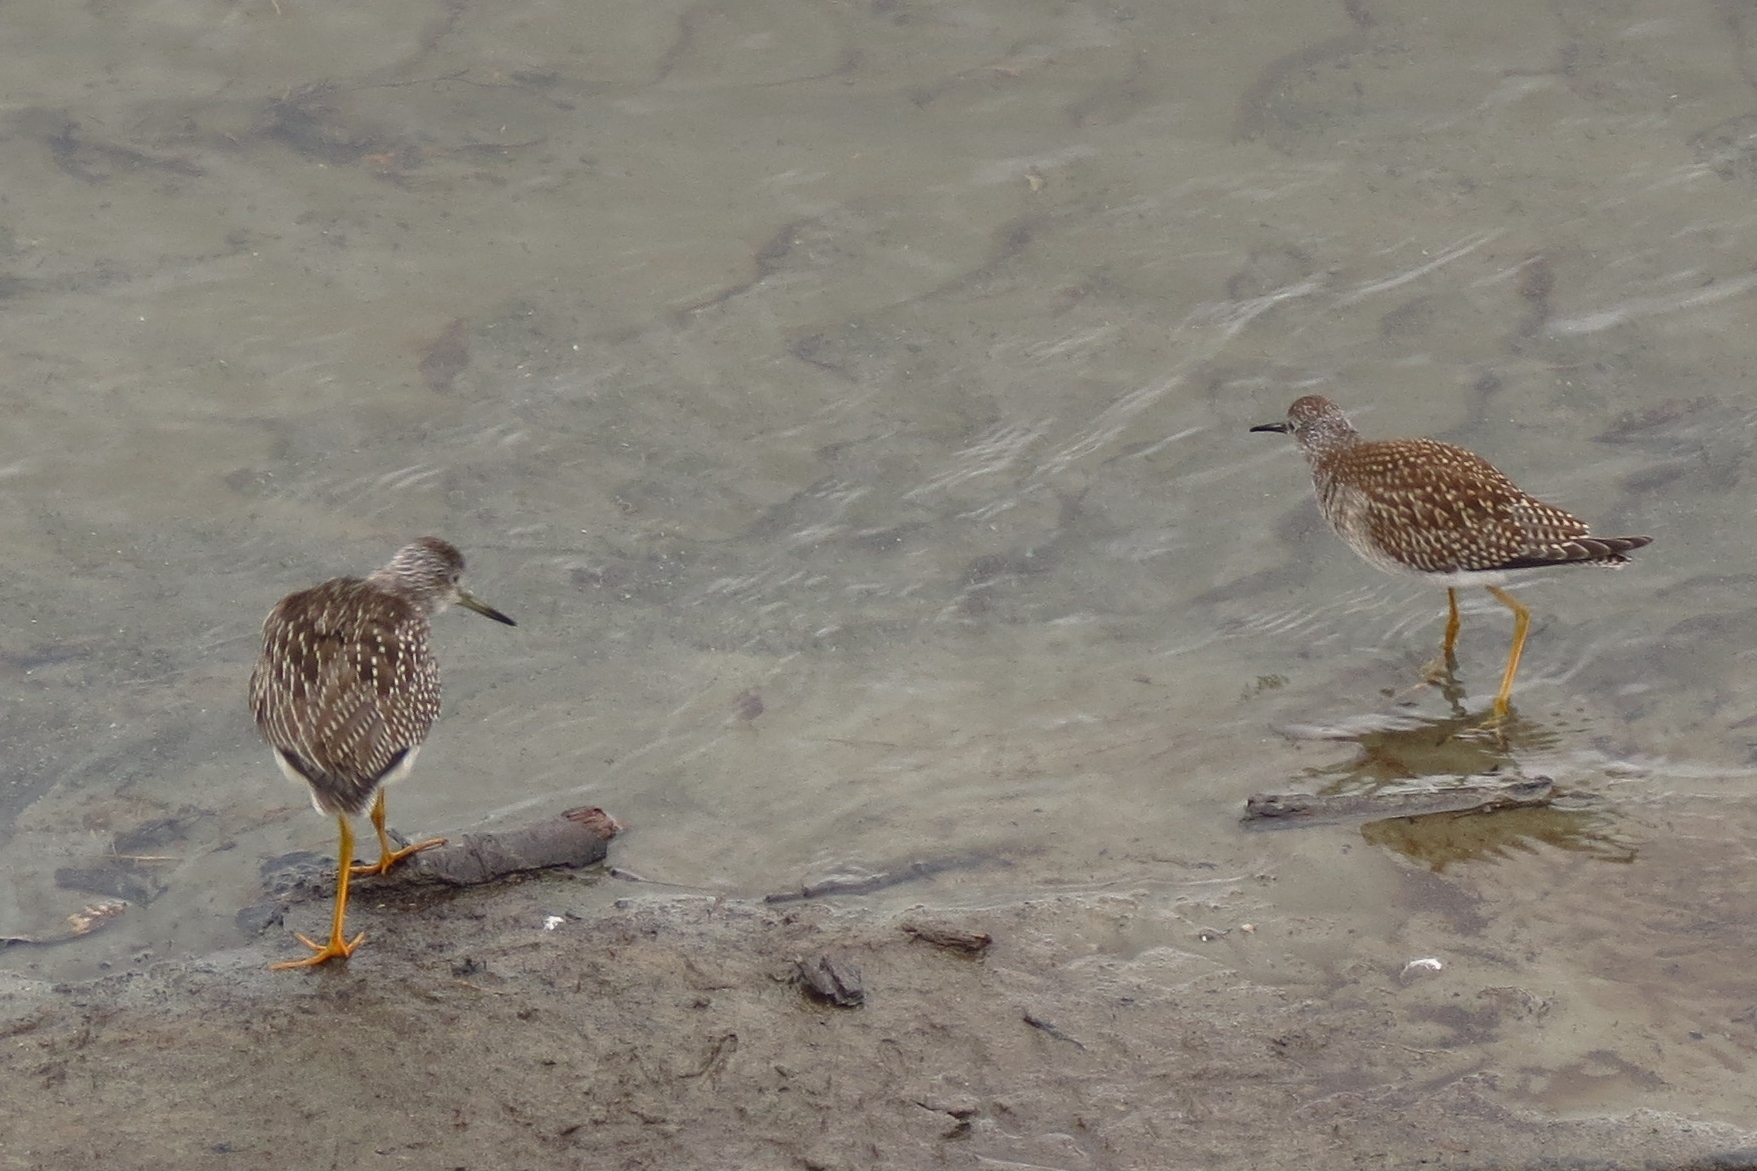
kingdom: Animalia
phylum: Chordata
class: Aves
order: Charadriiformes
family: Scolopacidae
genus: Tringa
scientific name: Tringa melanoleuca
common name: Greater yellowlegs
